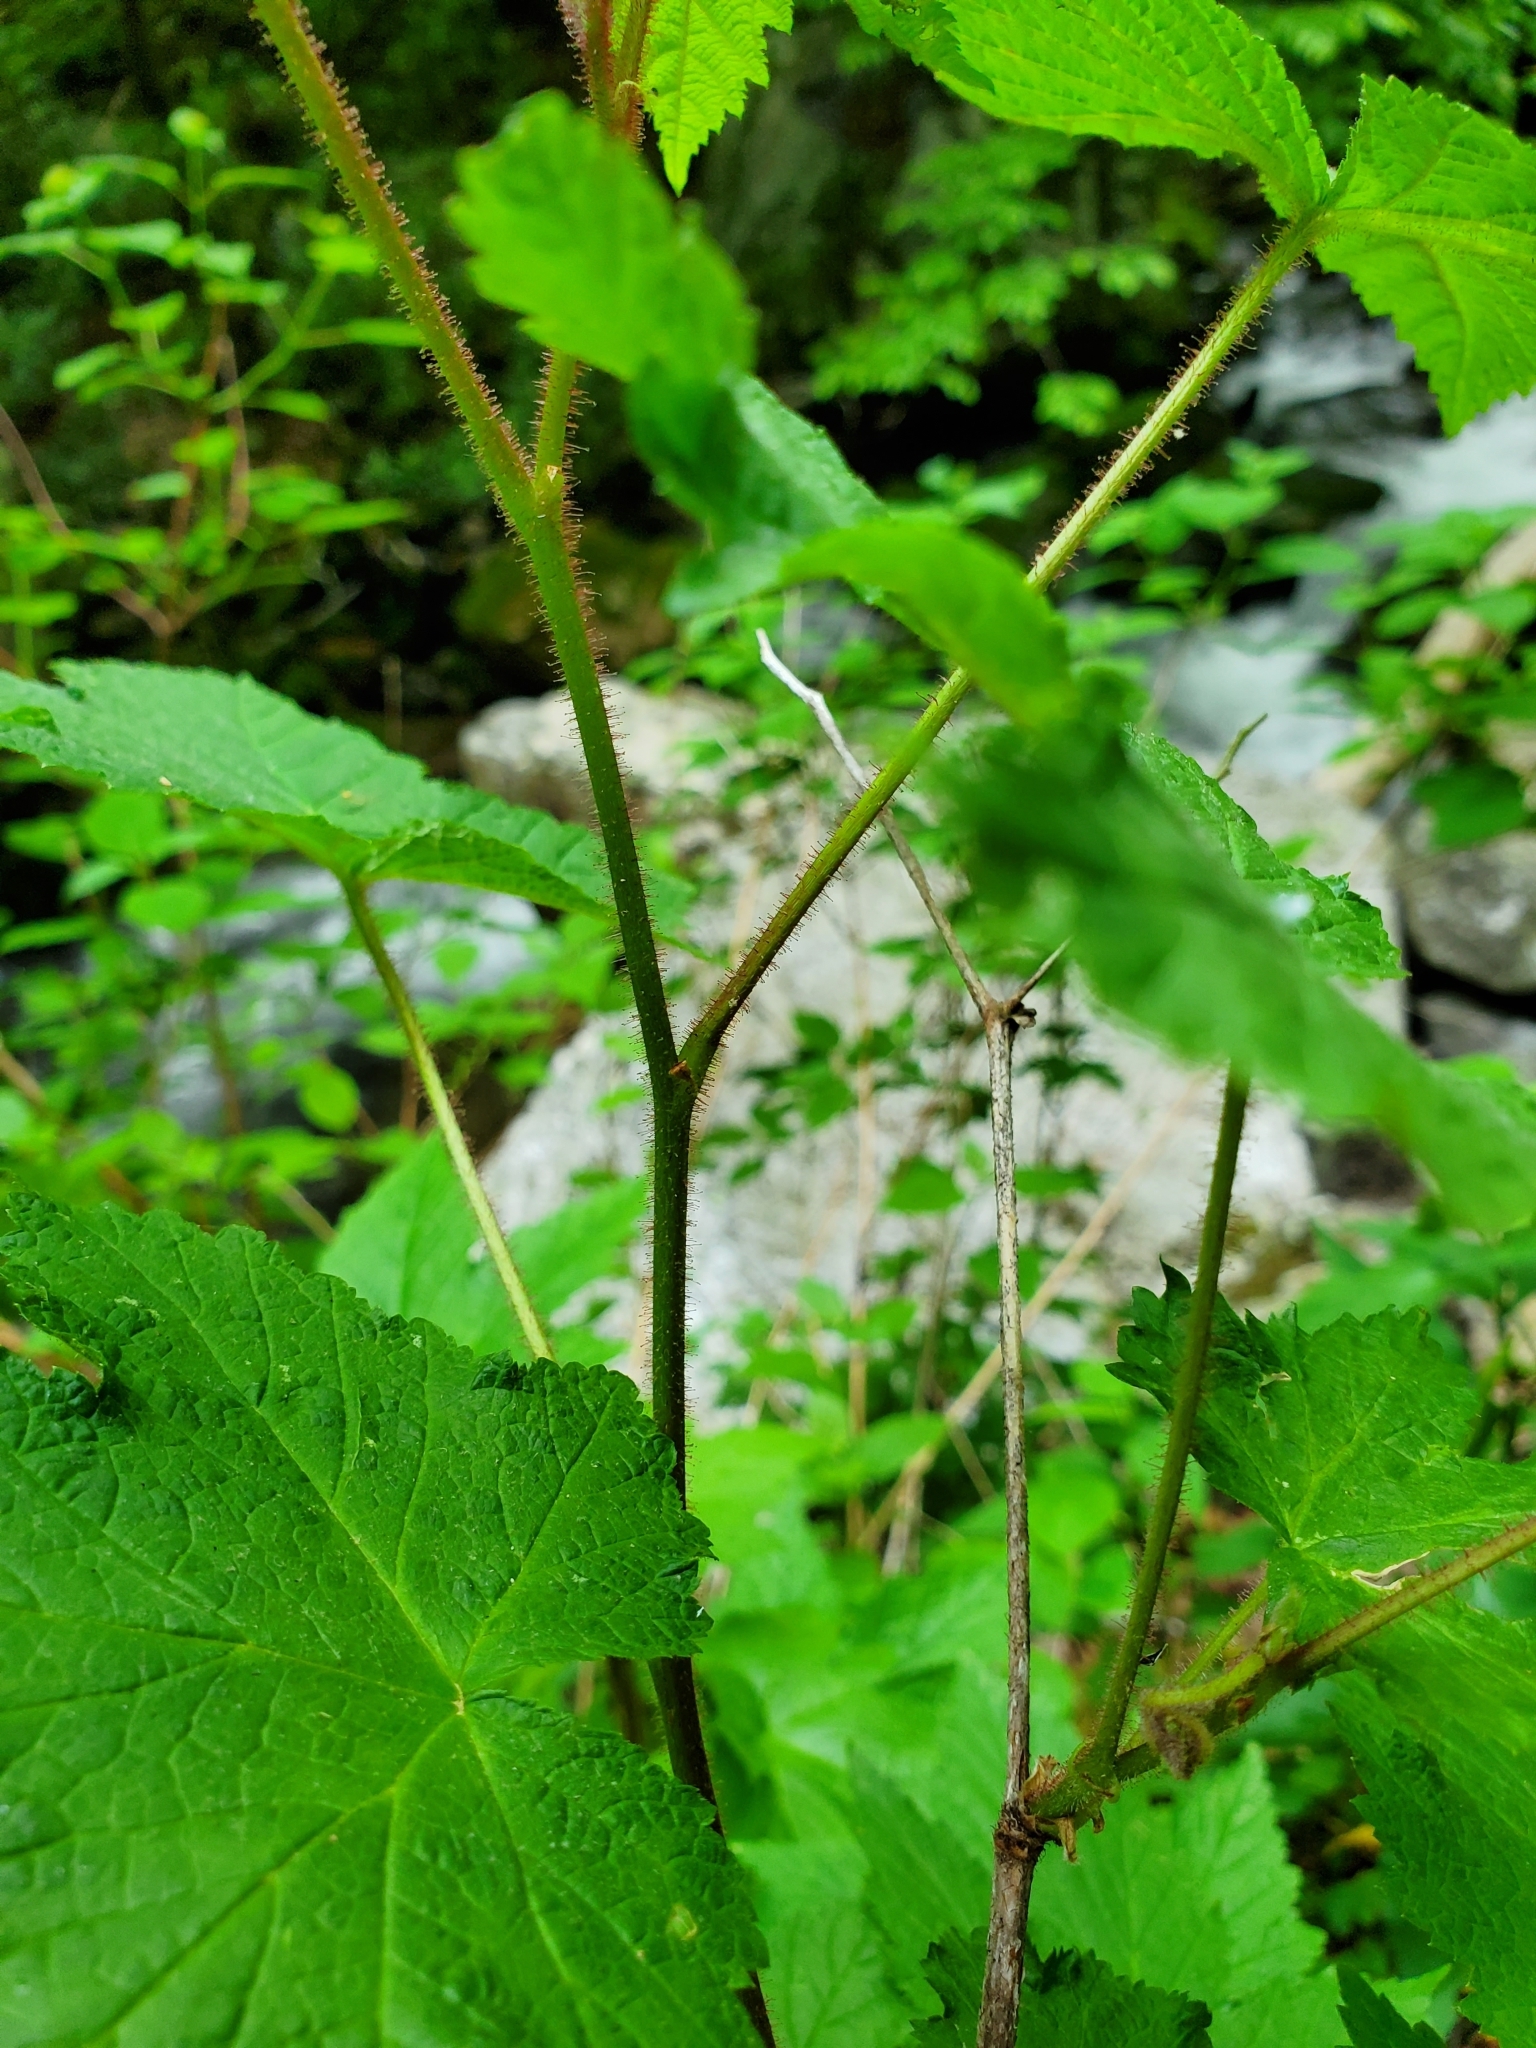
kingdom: Plantae
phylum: Tracheophyta
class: Magnoliopsida
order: Rosales
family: Rosaceae
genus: Rubus
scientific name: Rubus odoratus
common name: Purple-flowered raspberry
